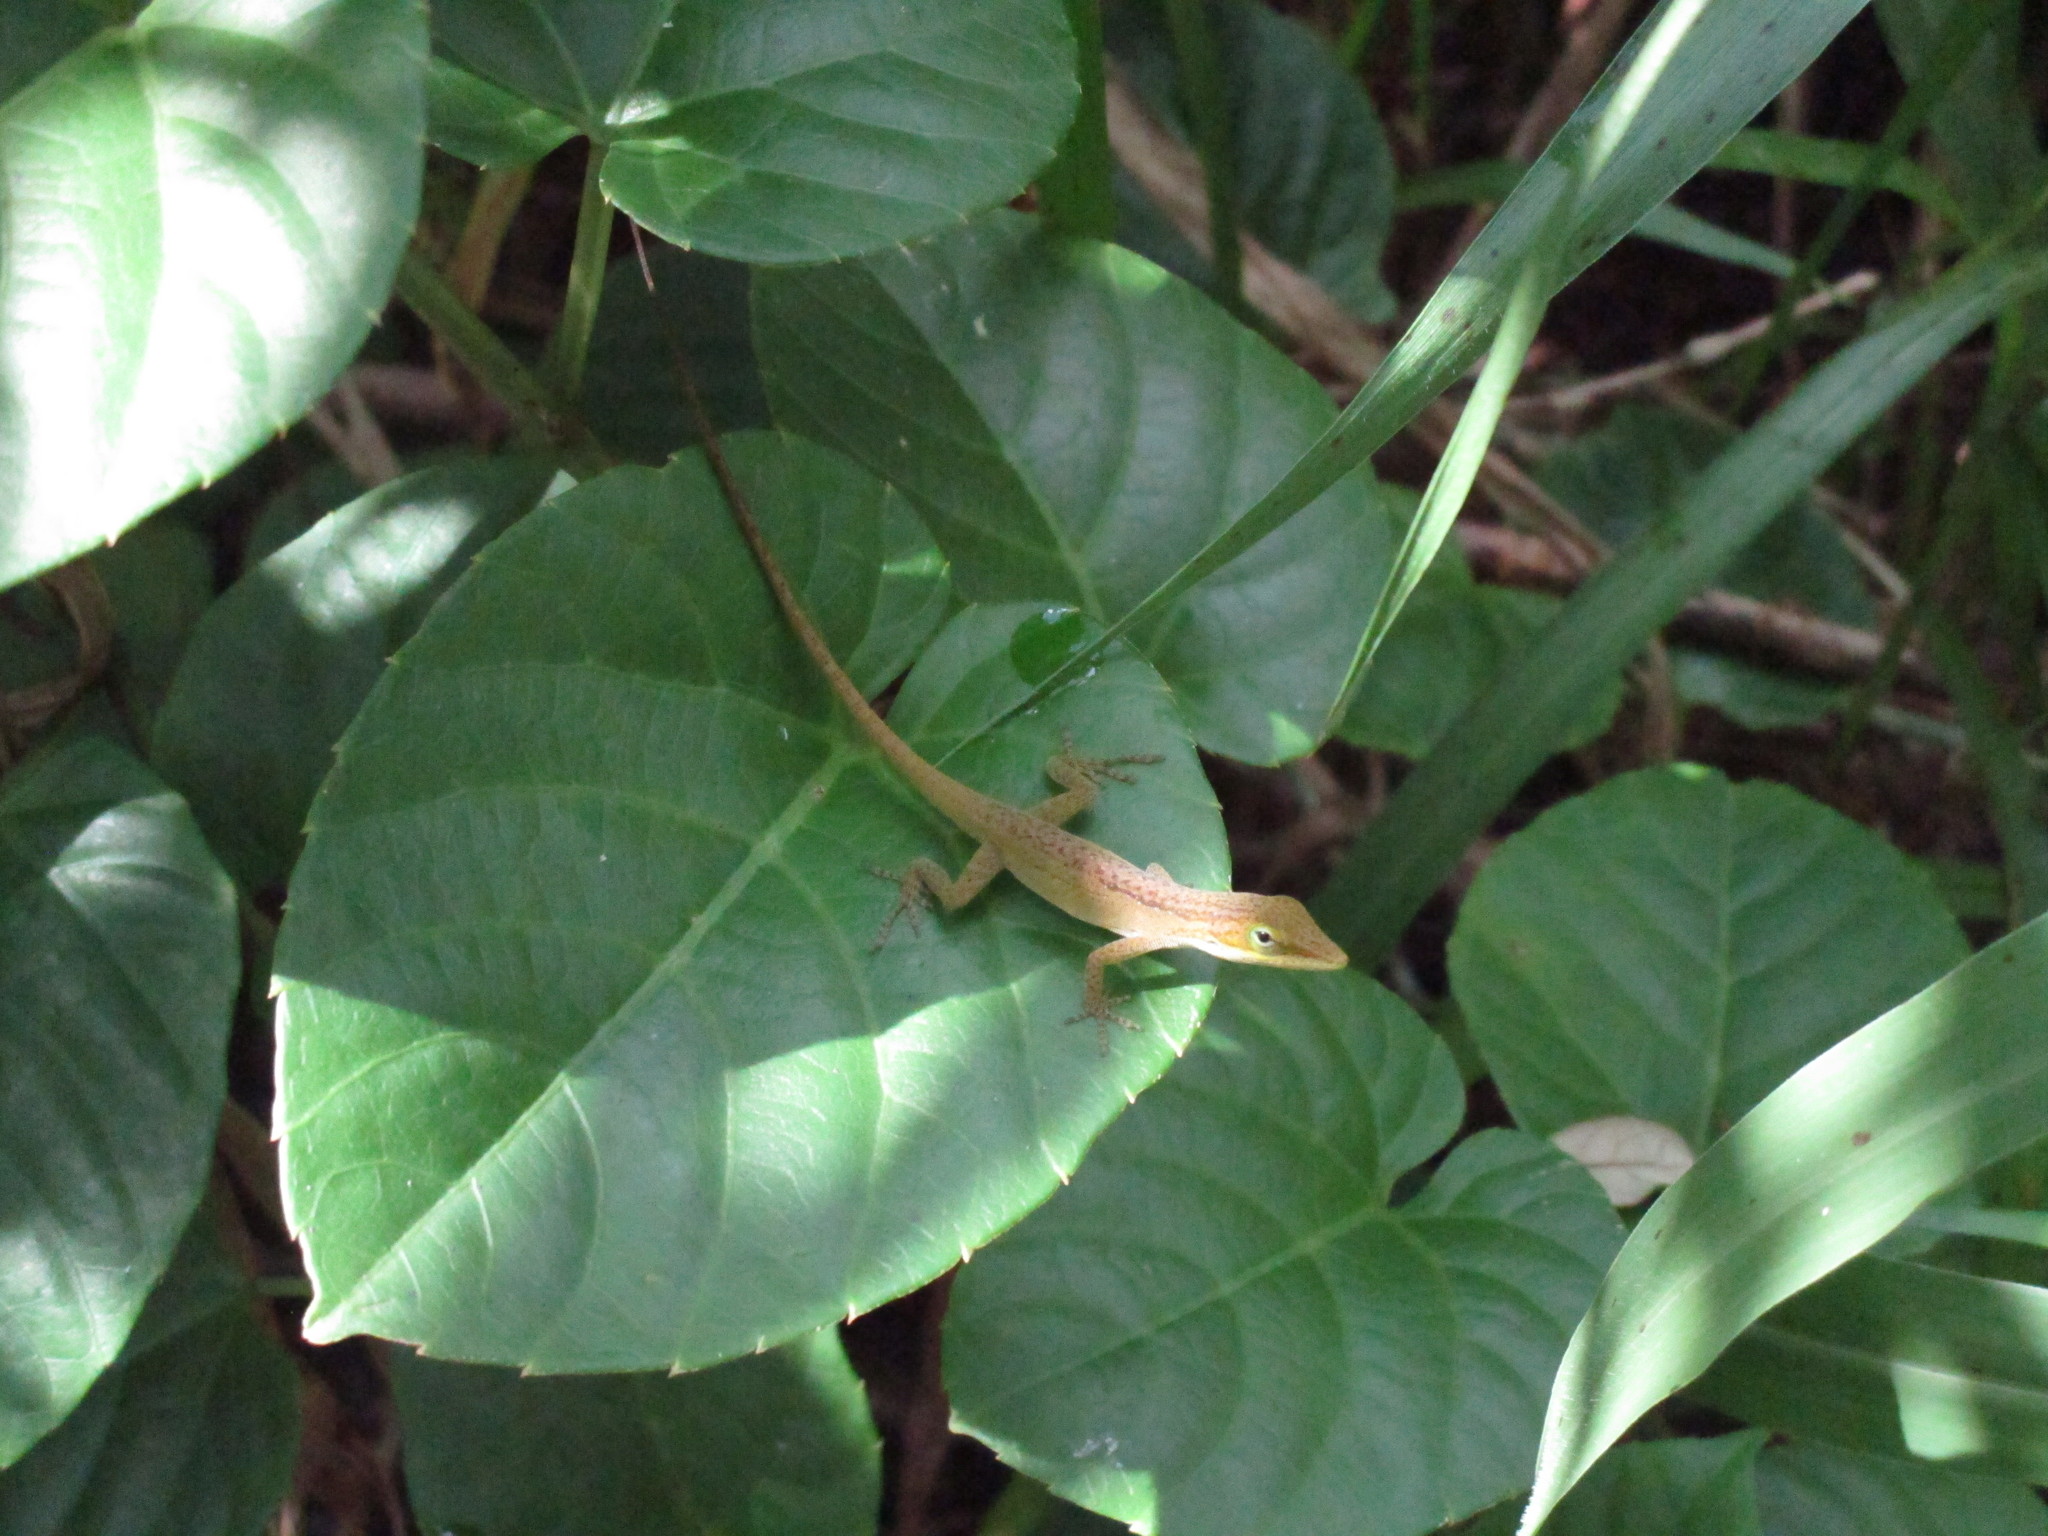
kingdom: Animalia
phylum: Chordata
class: Squamata
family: Dactyloidae
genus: Anolis
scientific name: Anolis carolinensis
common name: Green anole
